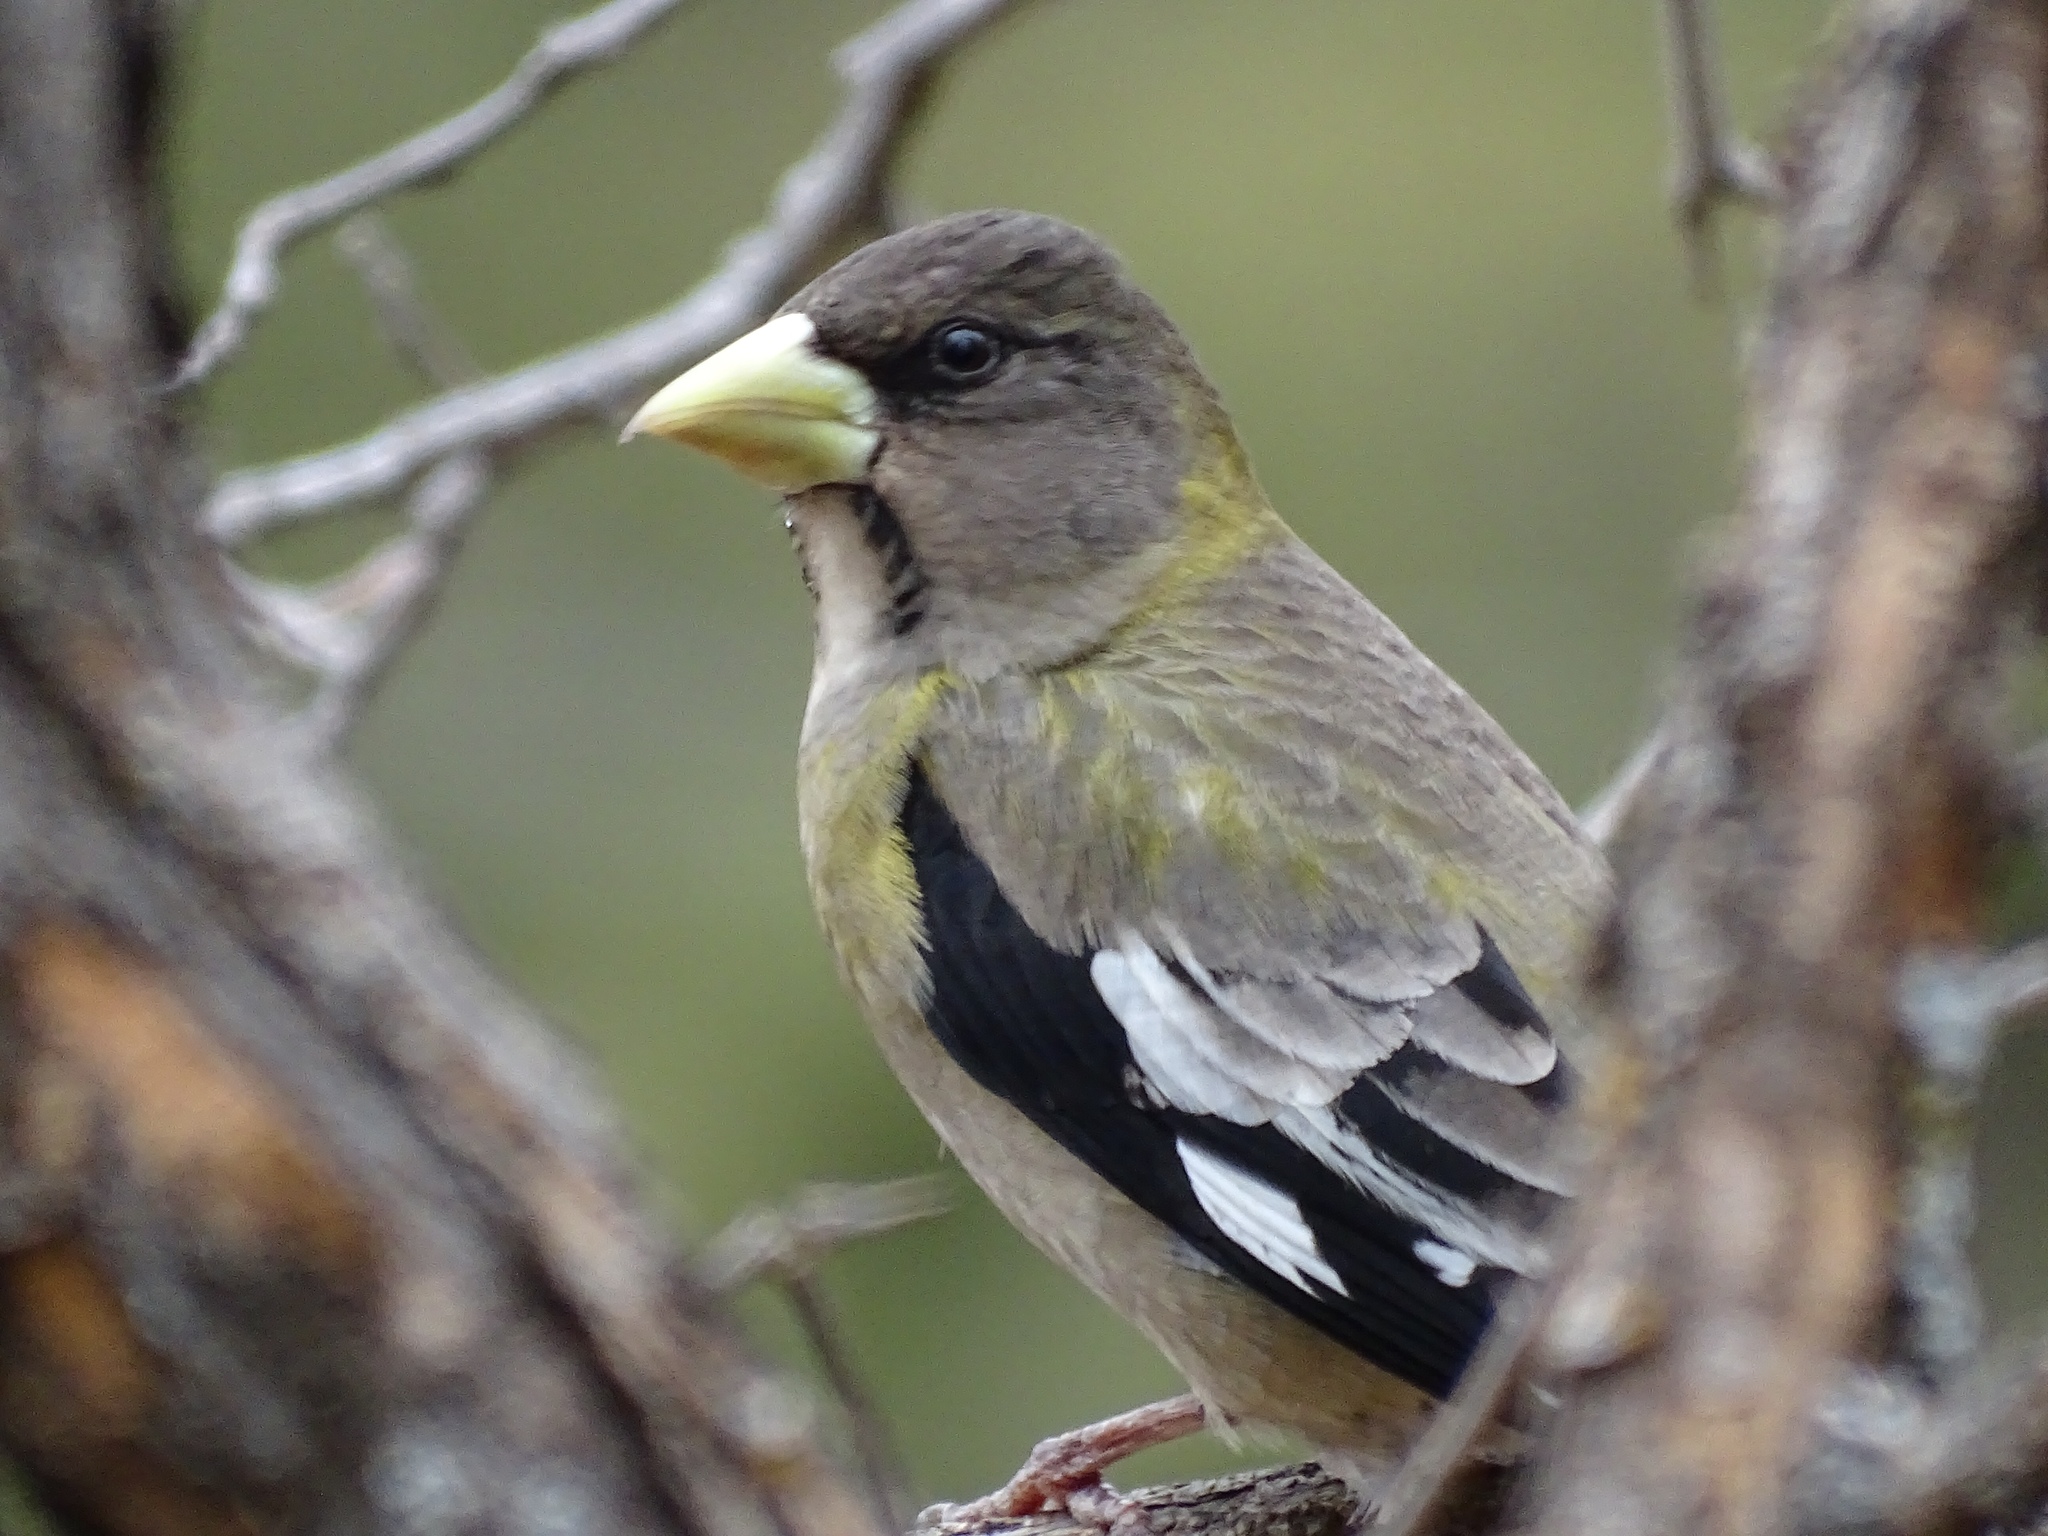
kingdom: Animalia
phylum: Chordata
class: Aves
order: Passeriformes
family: Fringillidae
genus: Hesperiphona
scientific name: Hesperiphona vespertina
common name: Evening grosbeak
